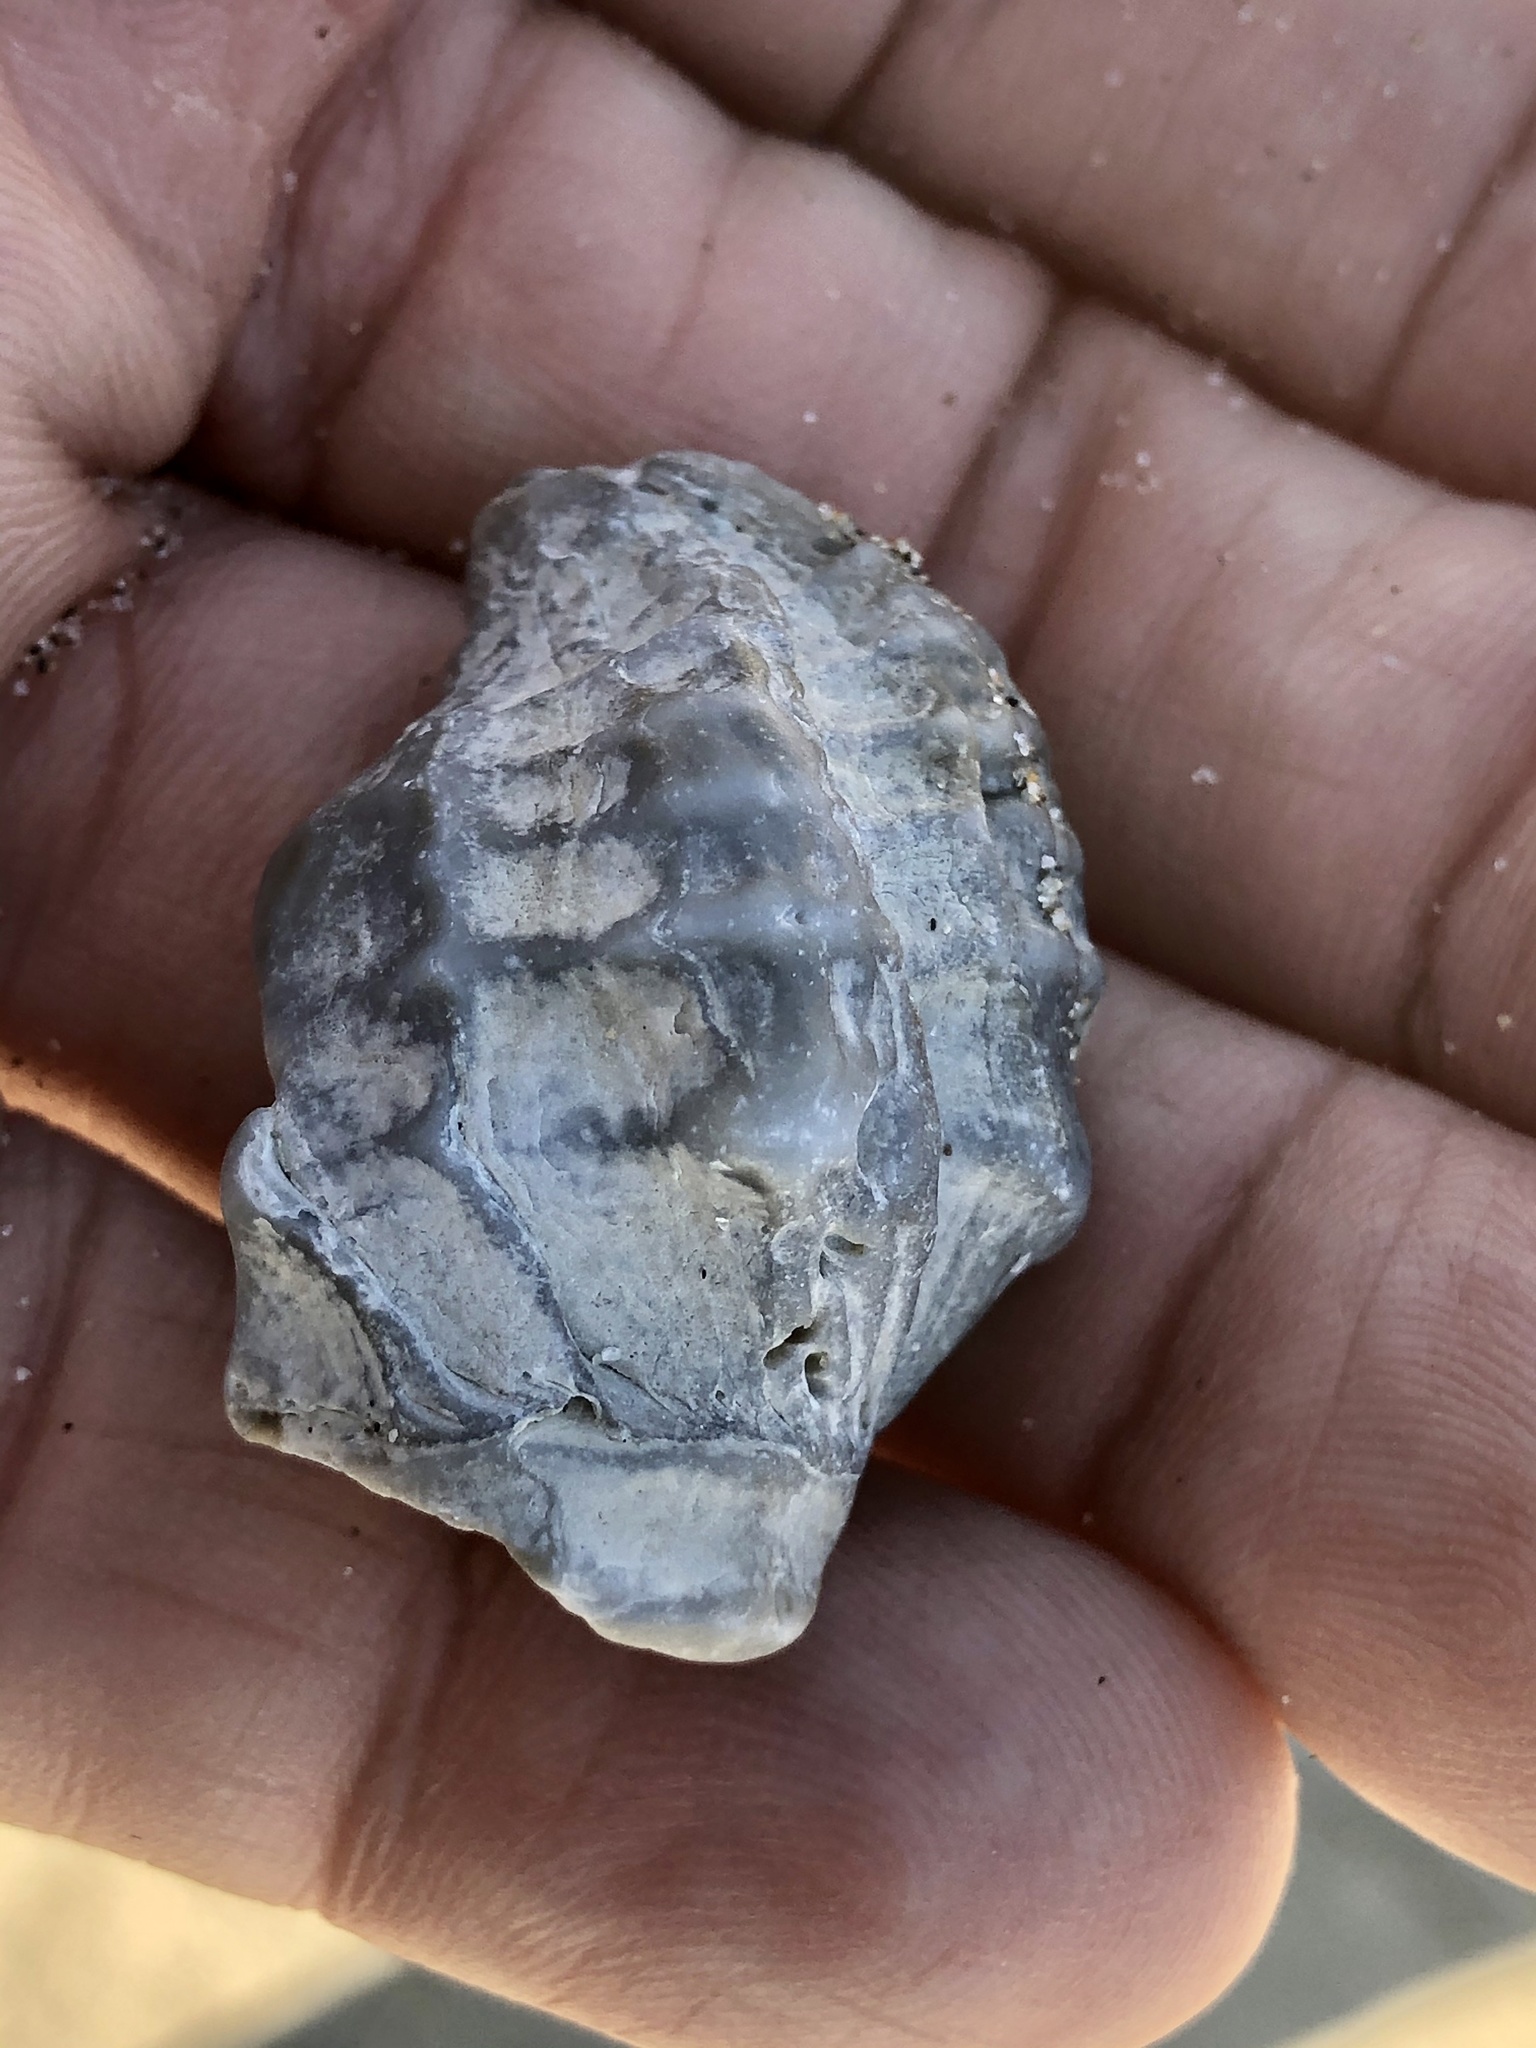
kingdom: Animalia
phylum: Mollusca
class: Gastropoda
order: Neogastropoda
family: Muricidae
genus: Nucella
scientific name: Nucella lamellosa
